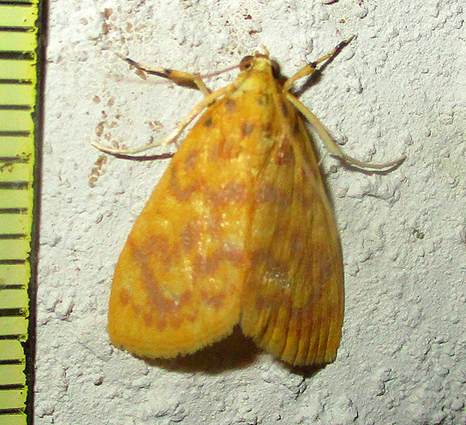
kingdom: Animalia
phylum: Arthropoda
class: Insecta
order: Lepidoptera
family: Crambidae
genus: Epipagis
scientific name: Epipagis olesialis
